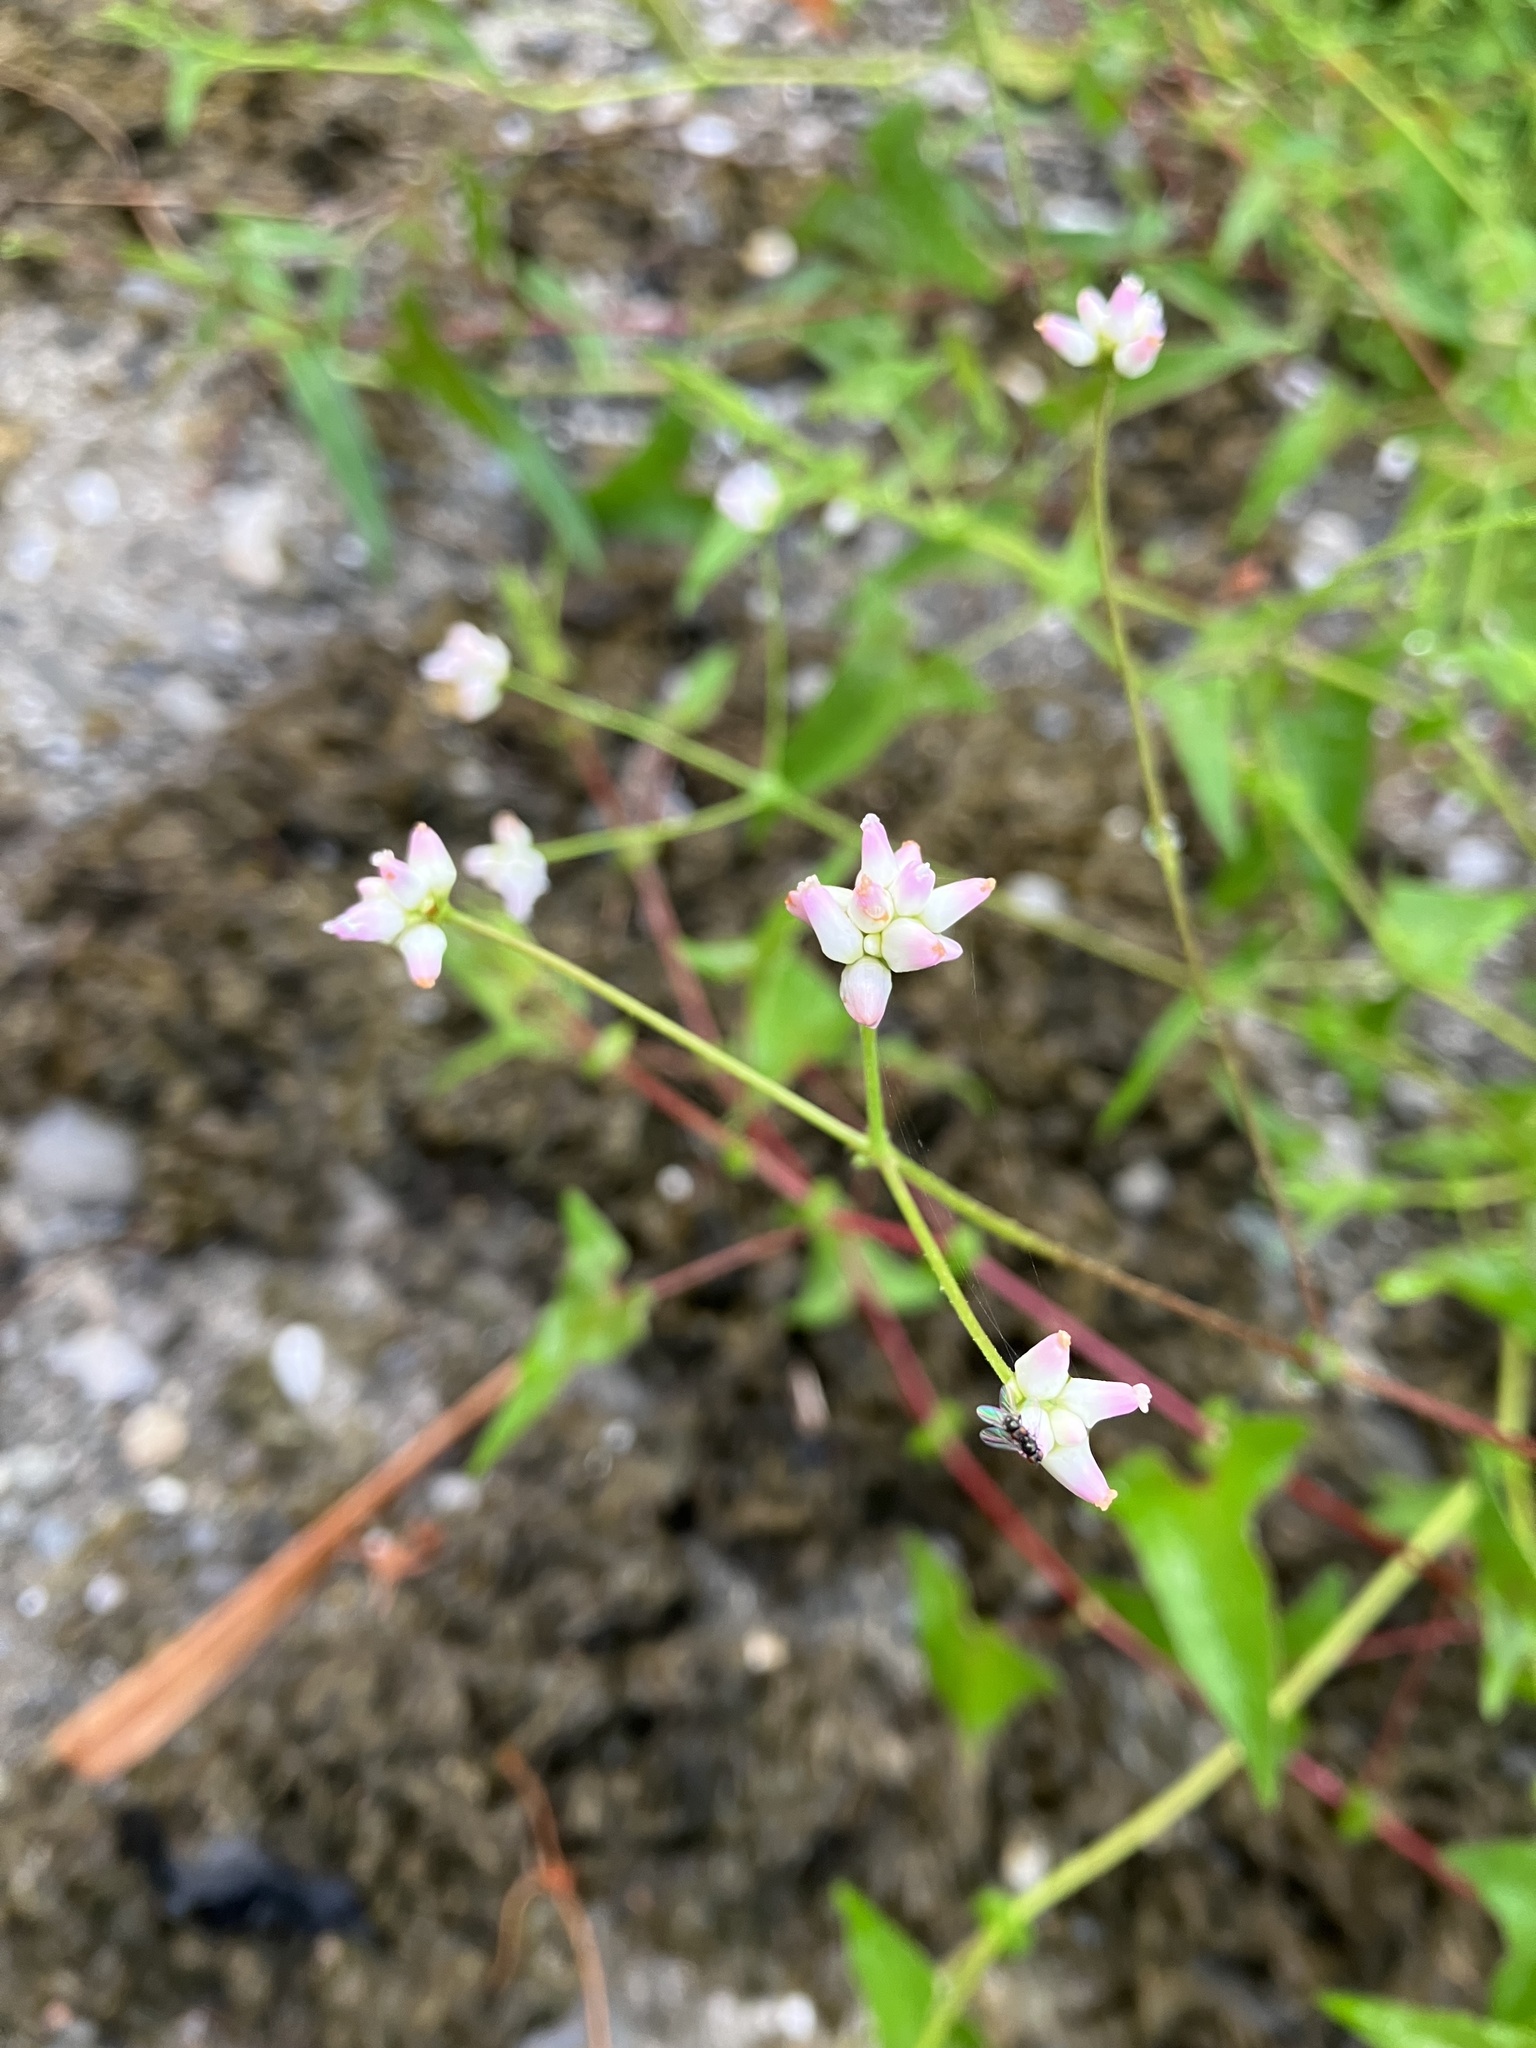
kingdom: Plantae
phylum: Tracheophyta
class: Magnoliopsida
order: Caryophyllales
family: Polygonaceae
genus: Persicaria
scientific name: Persicaria senticosa
